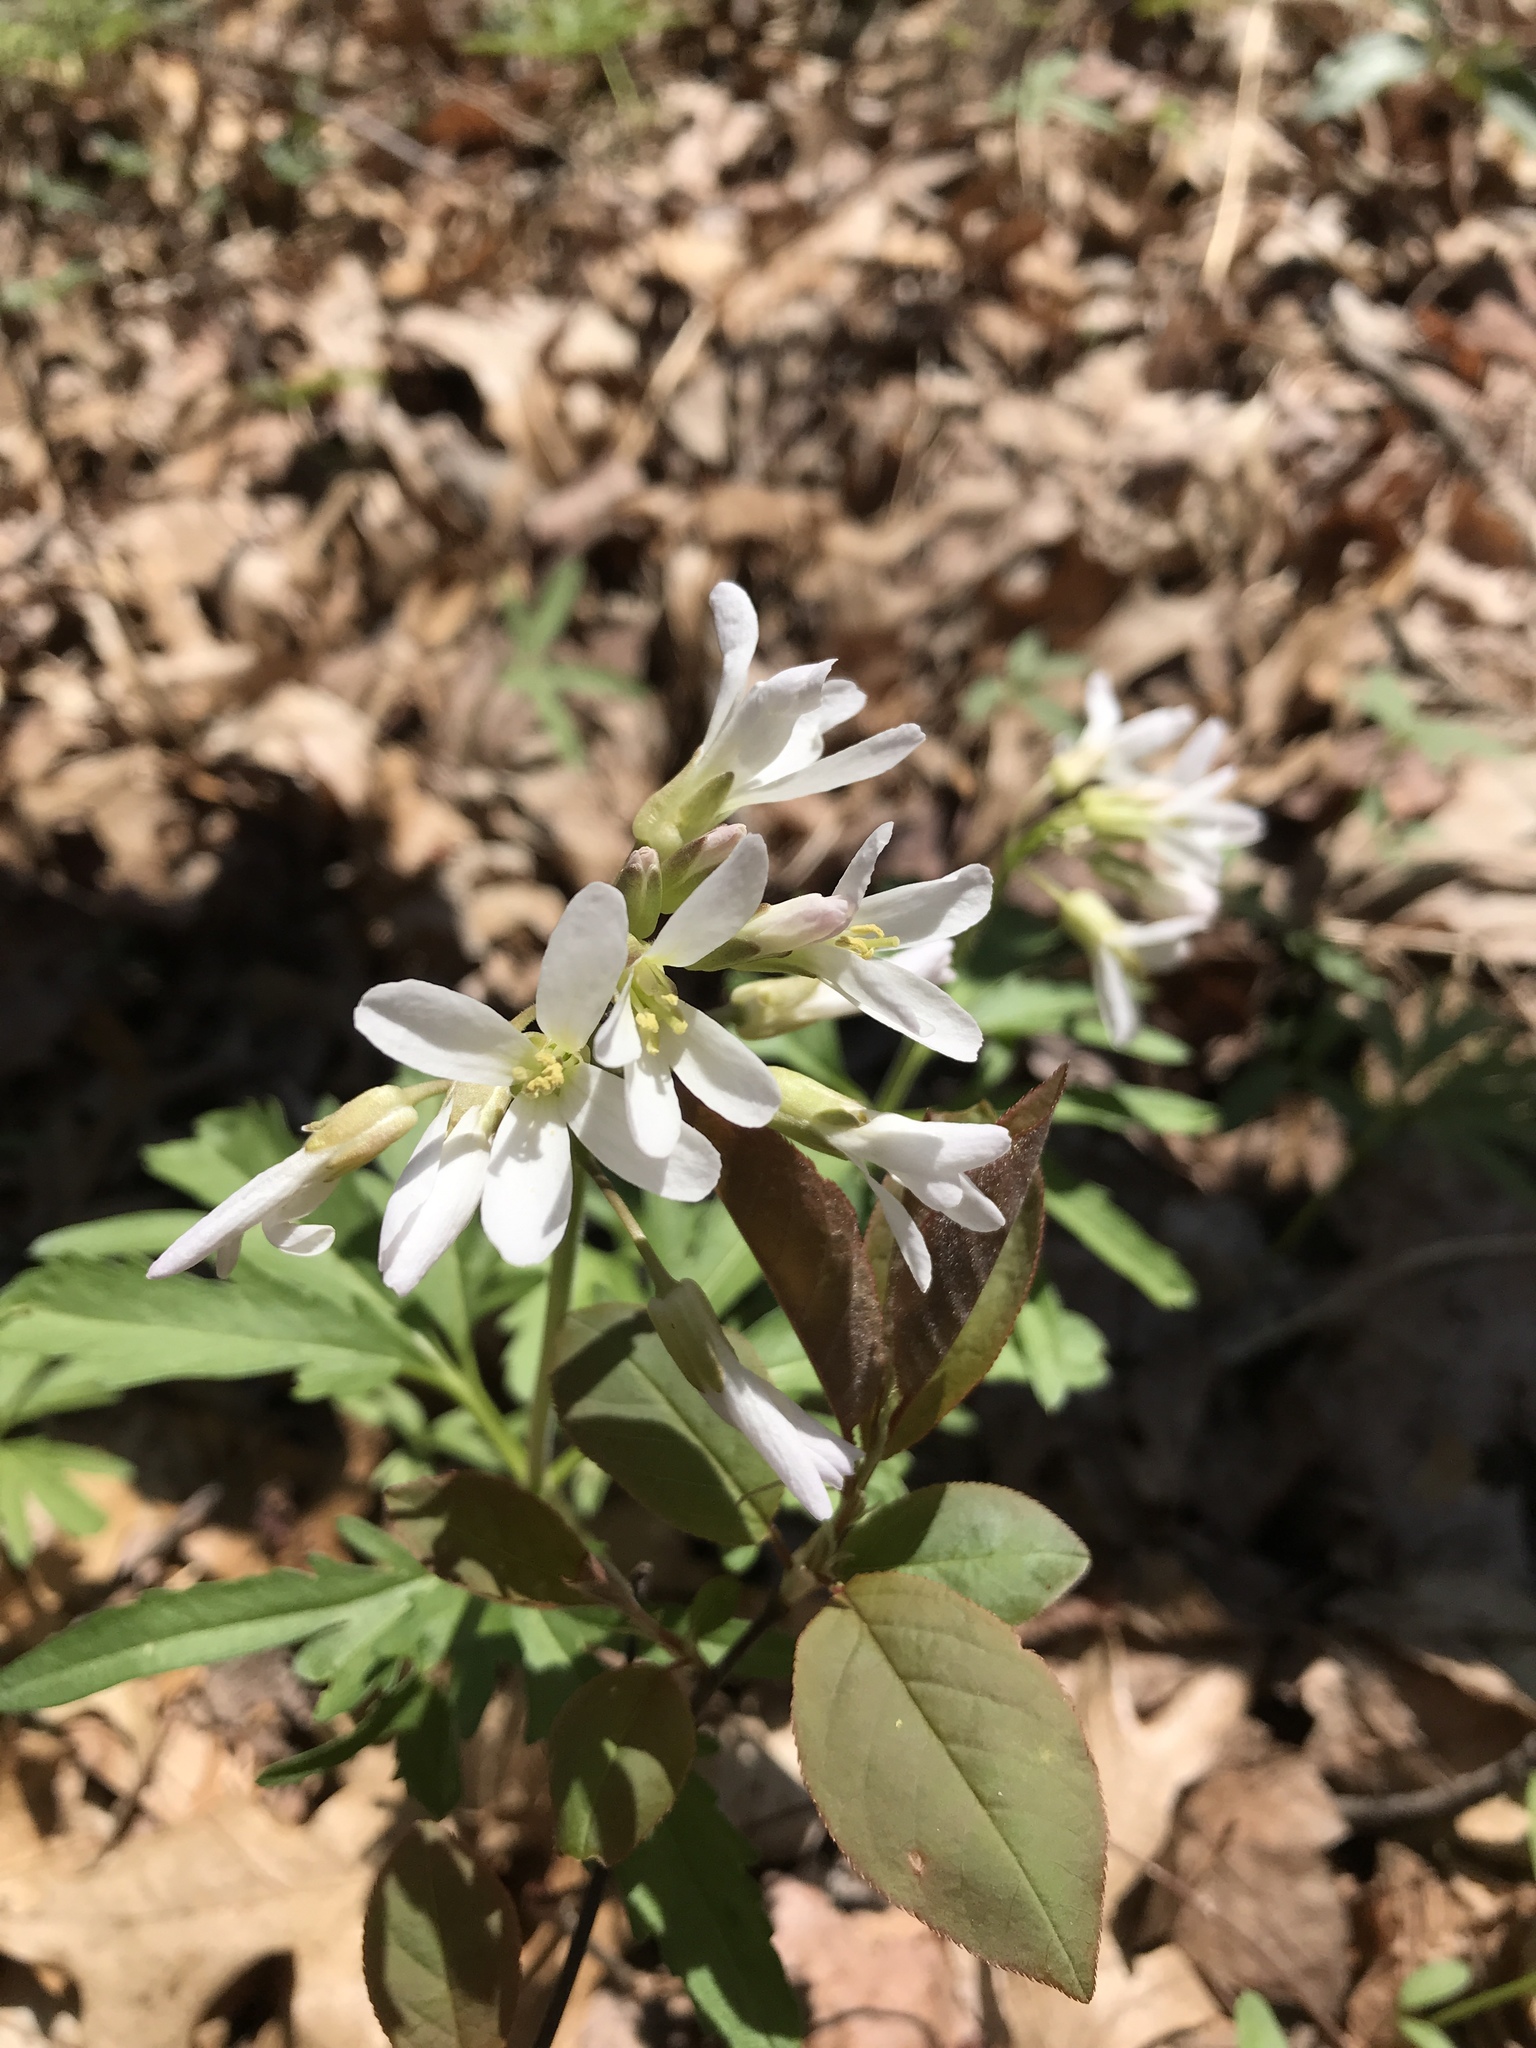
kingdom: Plantae
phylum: Tracheophyta
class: Magnoliopsida
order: Brassicales
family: Brassicaceae
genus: Cardamine
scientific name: Cardamine concatenata
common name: Cut-leaf toothcup
